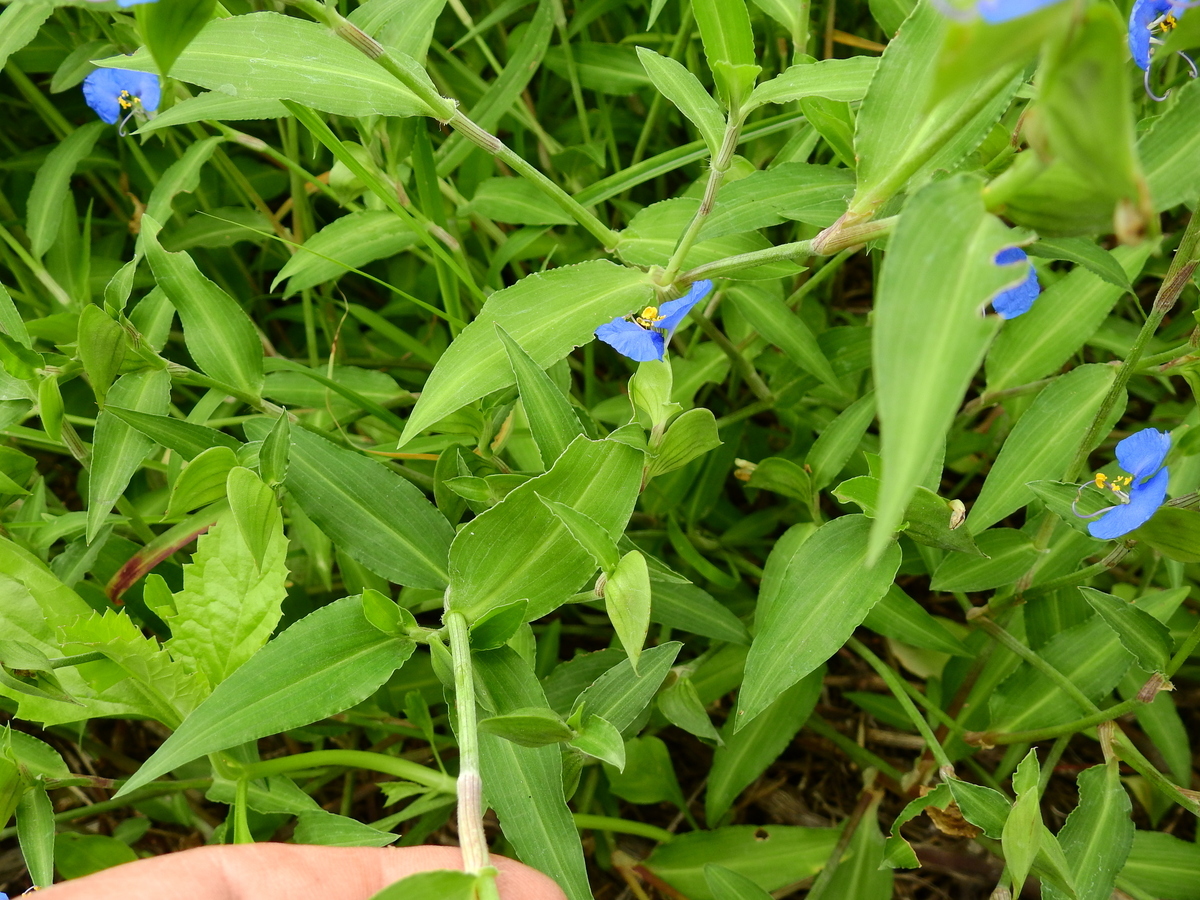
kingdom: Plantae
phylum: Tracheophyta
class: Liliopsida
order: Commelinales
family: Commelinaceae
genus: Commelina
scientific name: Commelina erecta
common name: Blousel blommetjie
